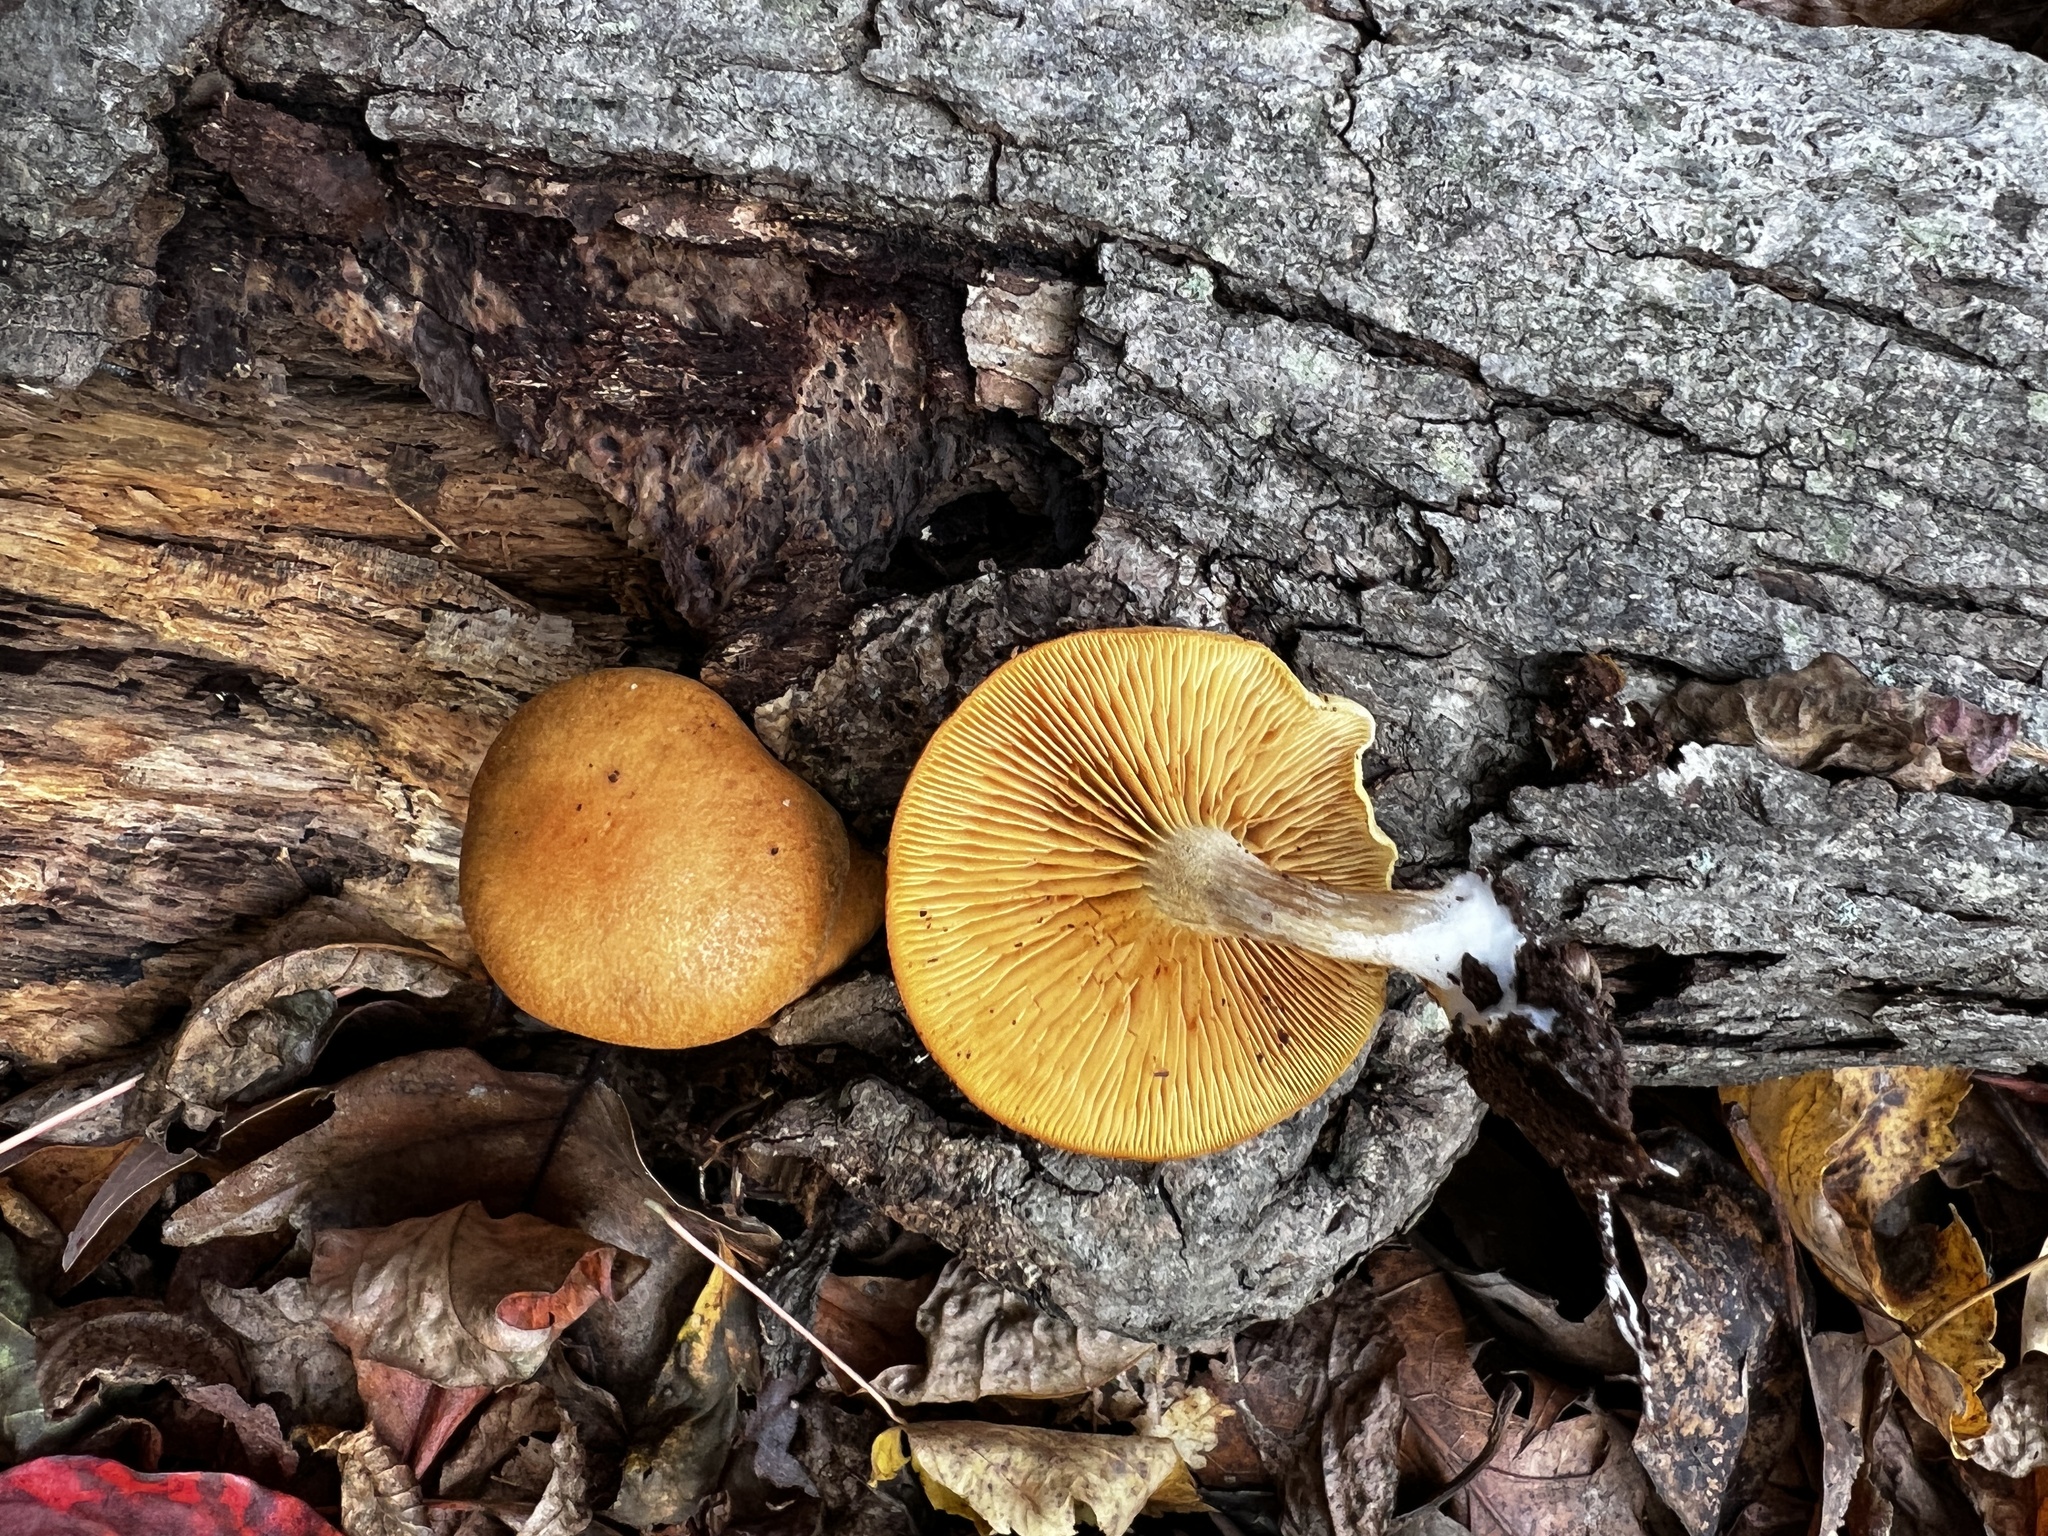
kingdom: Fungi
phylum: Basidiomycota
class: Agaricomycetes
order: Agaricales
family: Hymenogastraceae
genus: Gymnopilus
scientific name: Gymnopilus flavidellus
